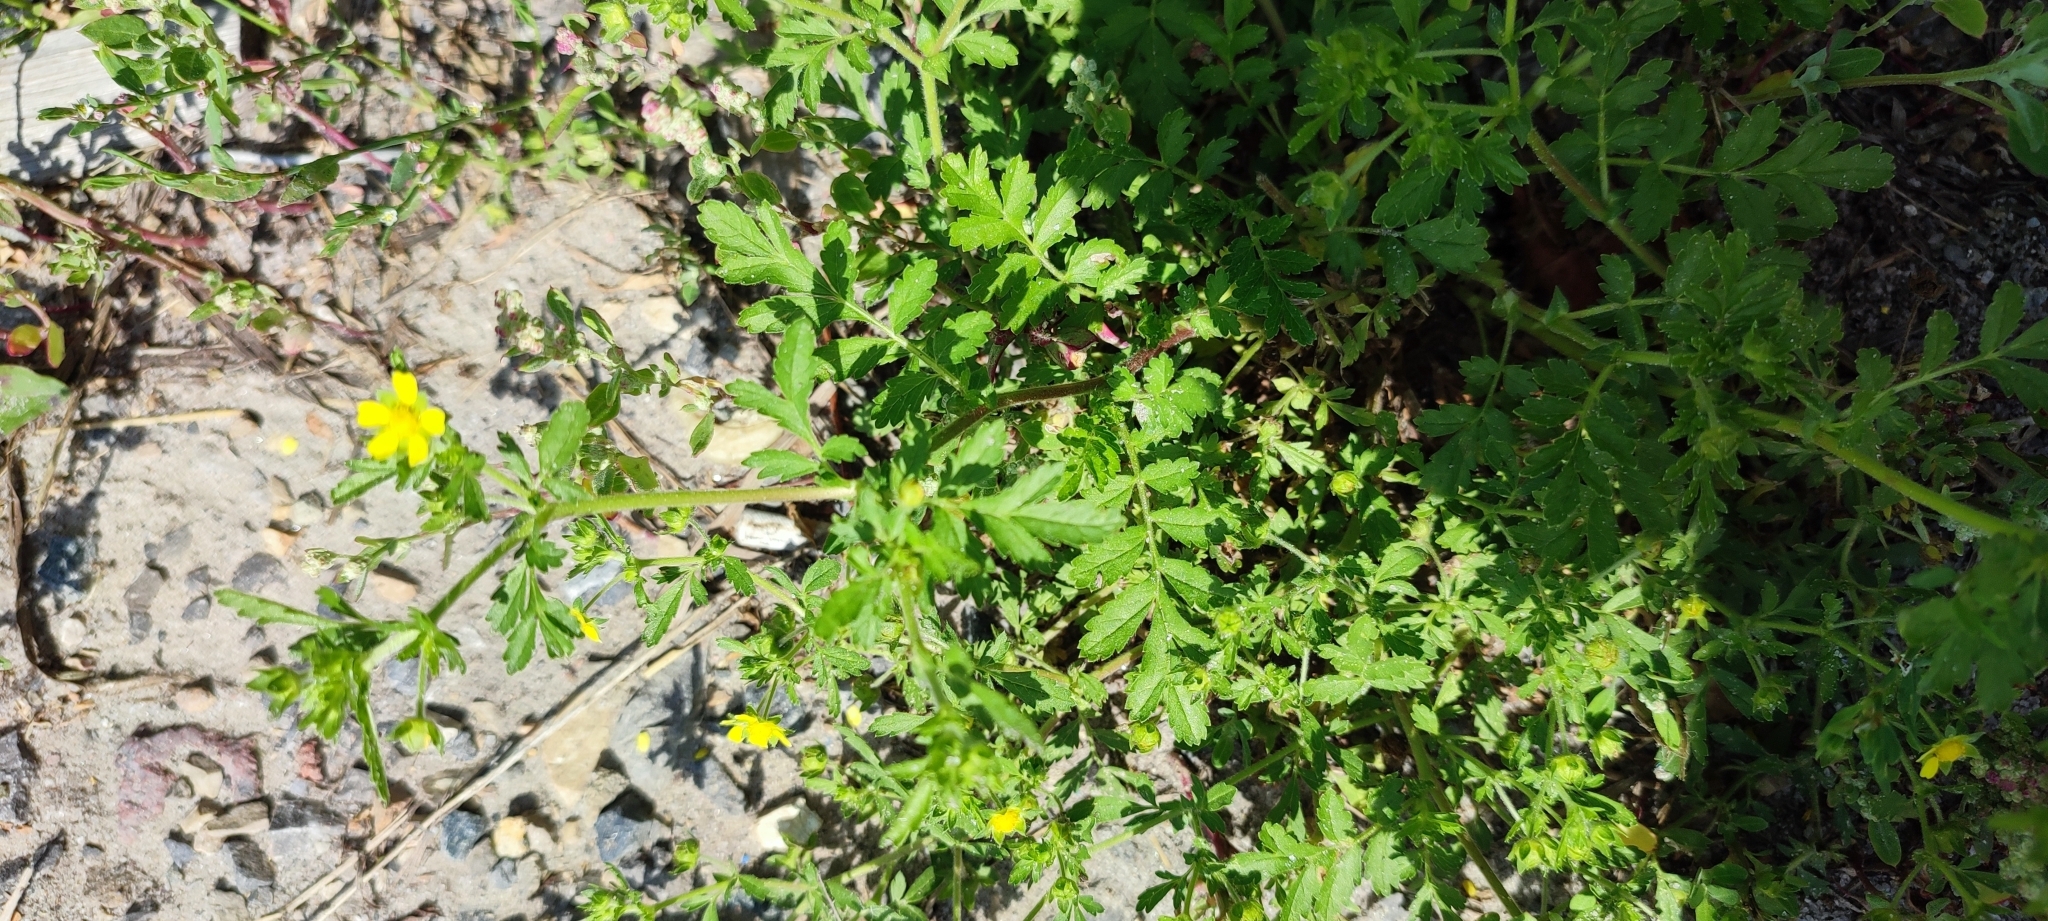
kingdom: Plantae
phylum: Tracheophyta
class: Magnoliopsida
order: Rosales
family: Rosaceae
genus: Potentilla
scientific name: Potentilla supina
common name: Prostrate cinquefoil
